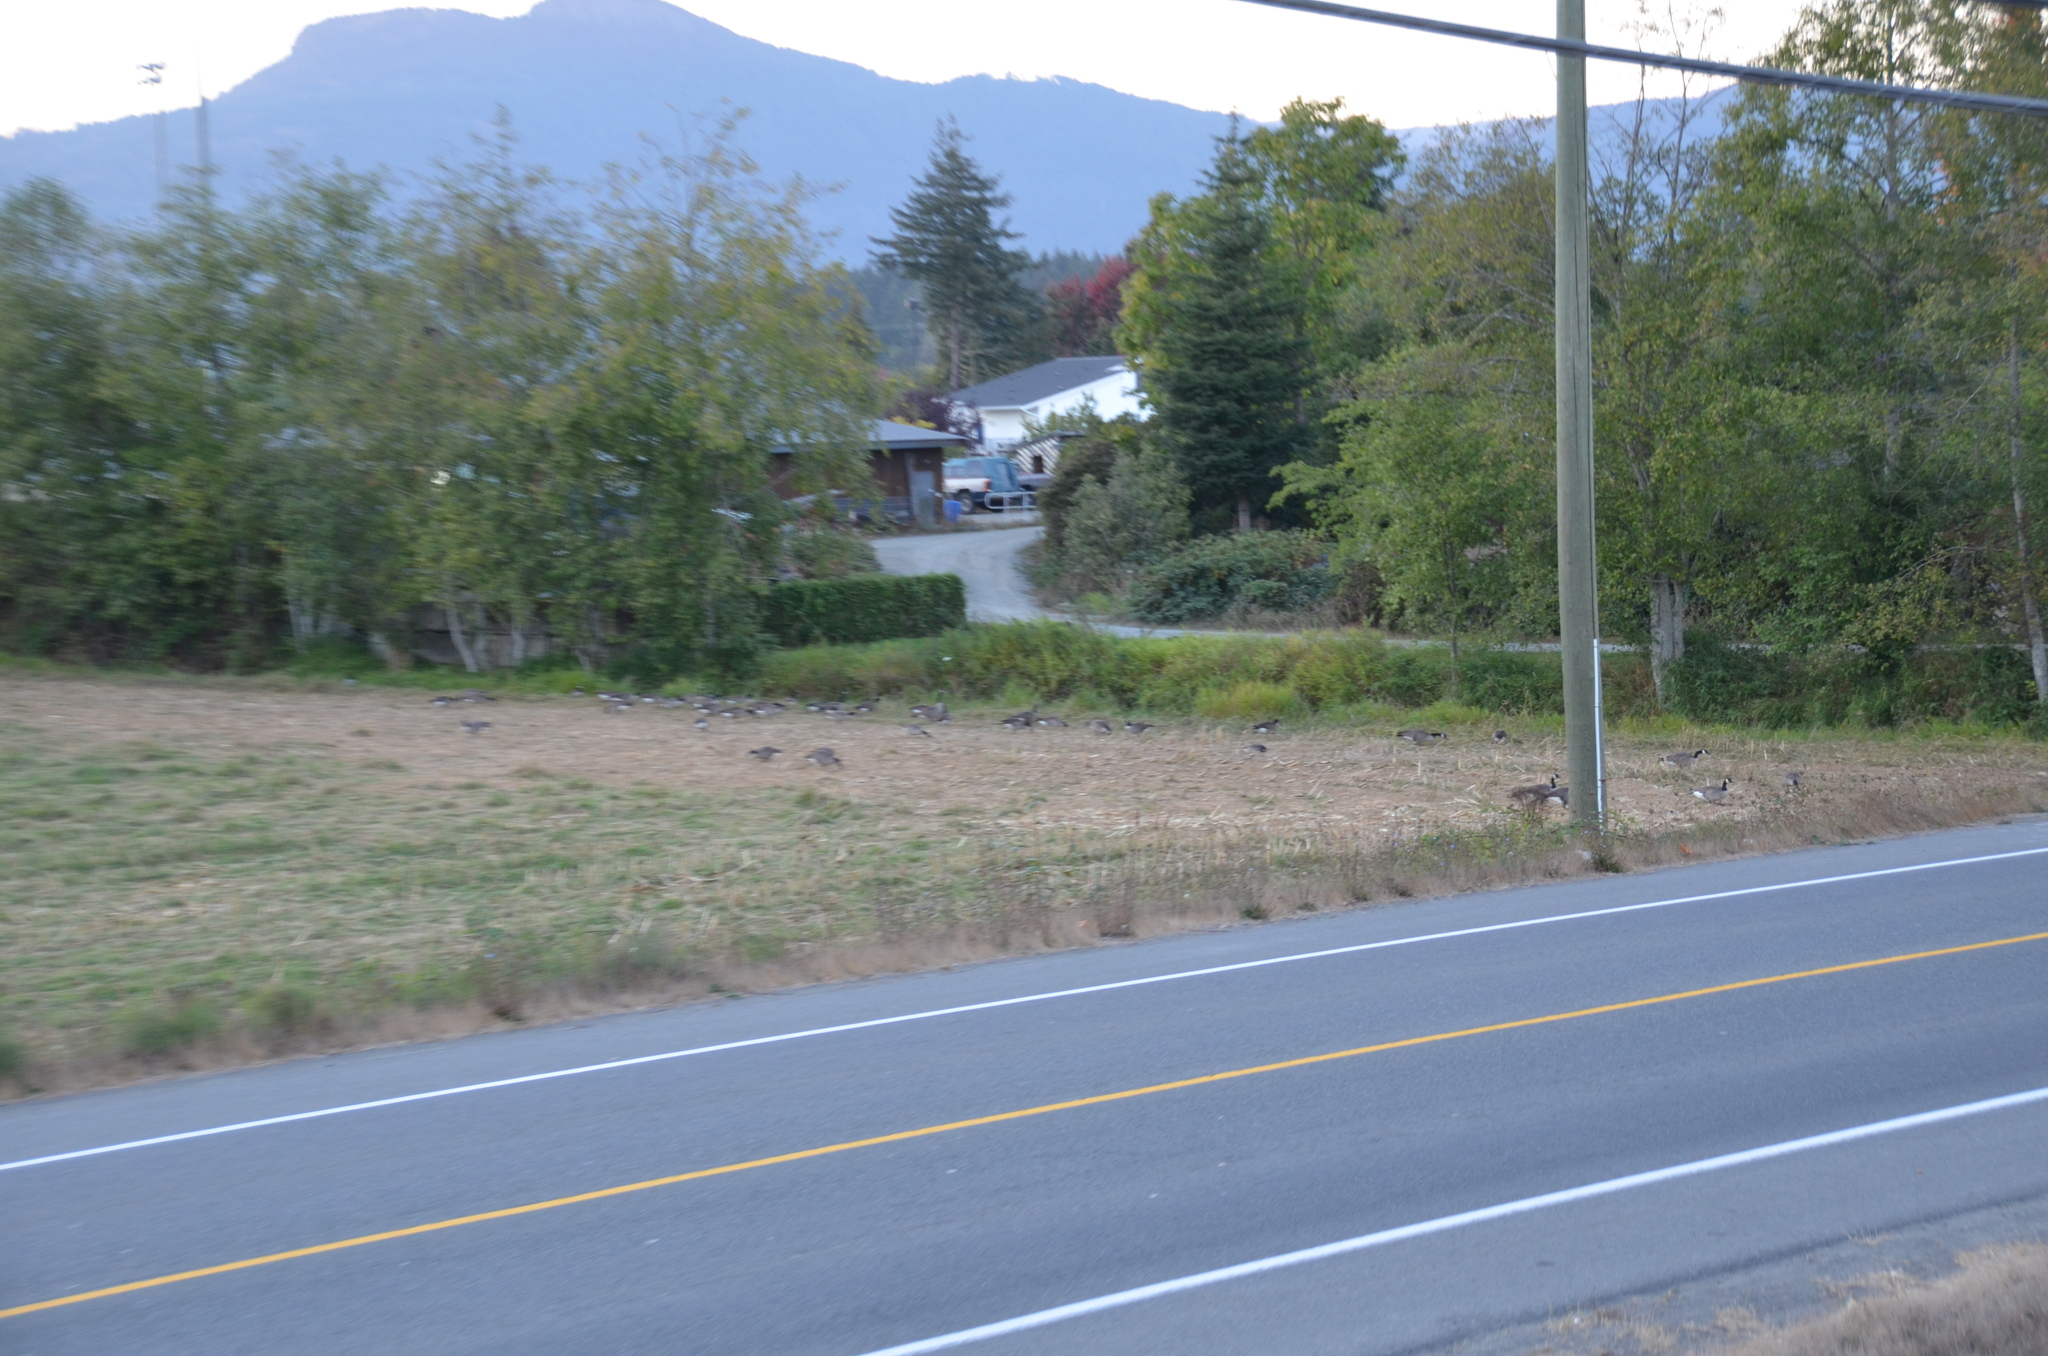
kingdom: Animalia
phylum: Chordata
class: Aves
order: Anseriformes
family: Anatidae
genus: Branta
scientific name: Branta canadensis
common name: Canada goose
